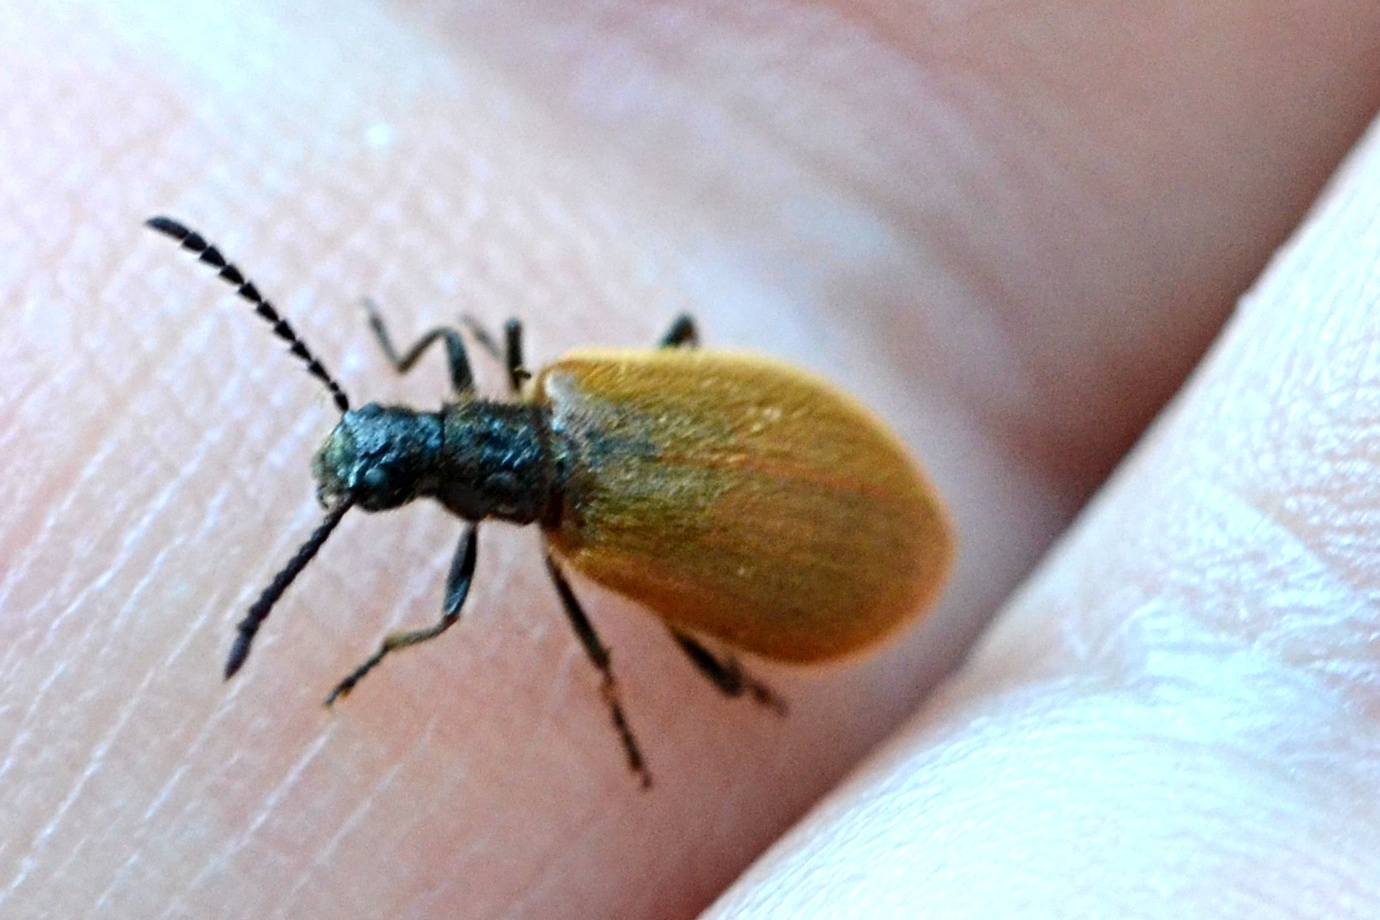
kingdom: Animalia
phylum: Arthropoda
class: Insecta
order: Coleoptera
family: Tenebrionidae
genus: Lagria
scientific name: Lagria hirta
